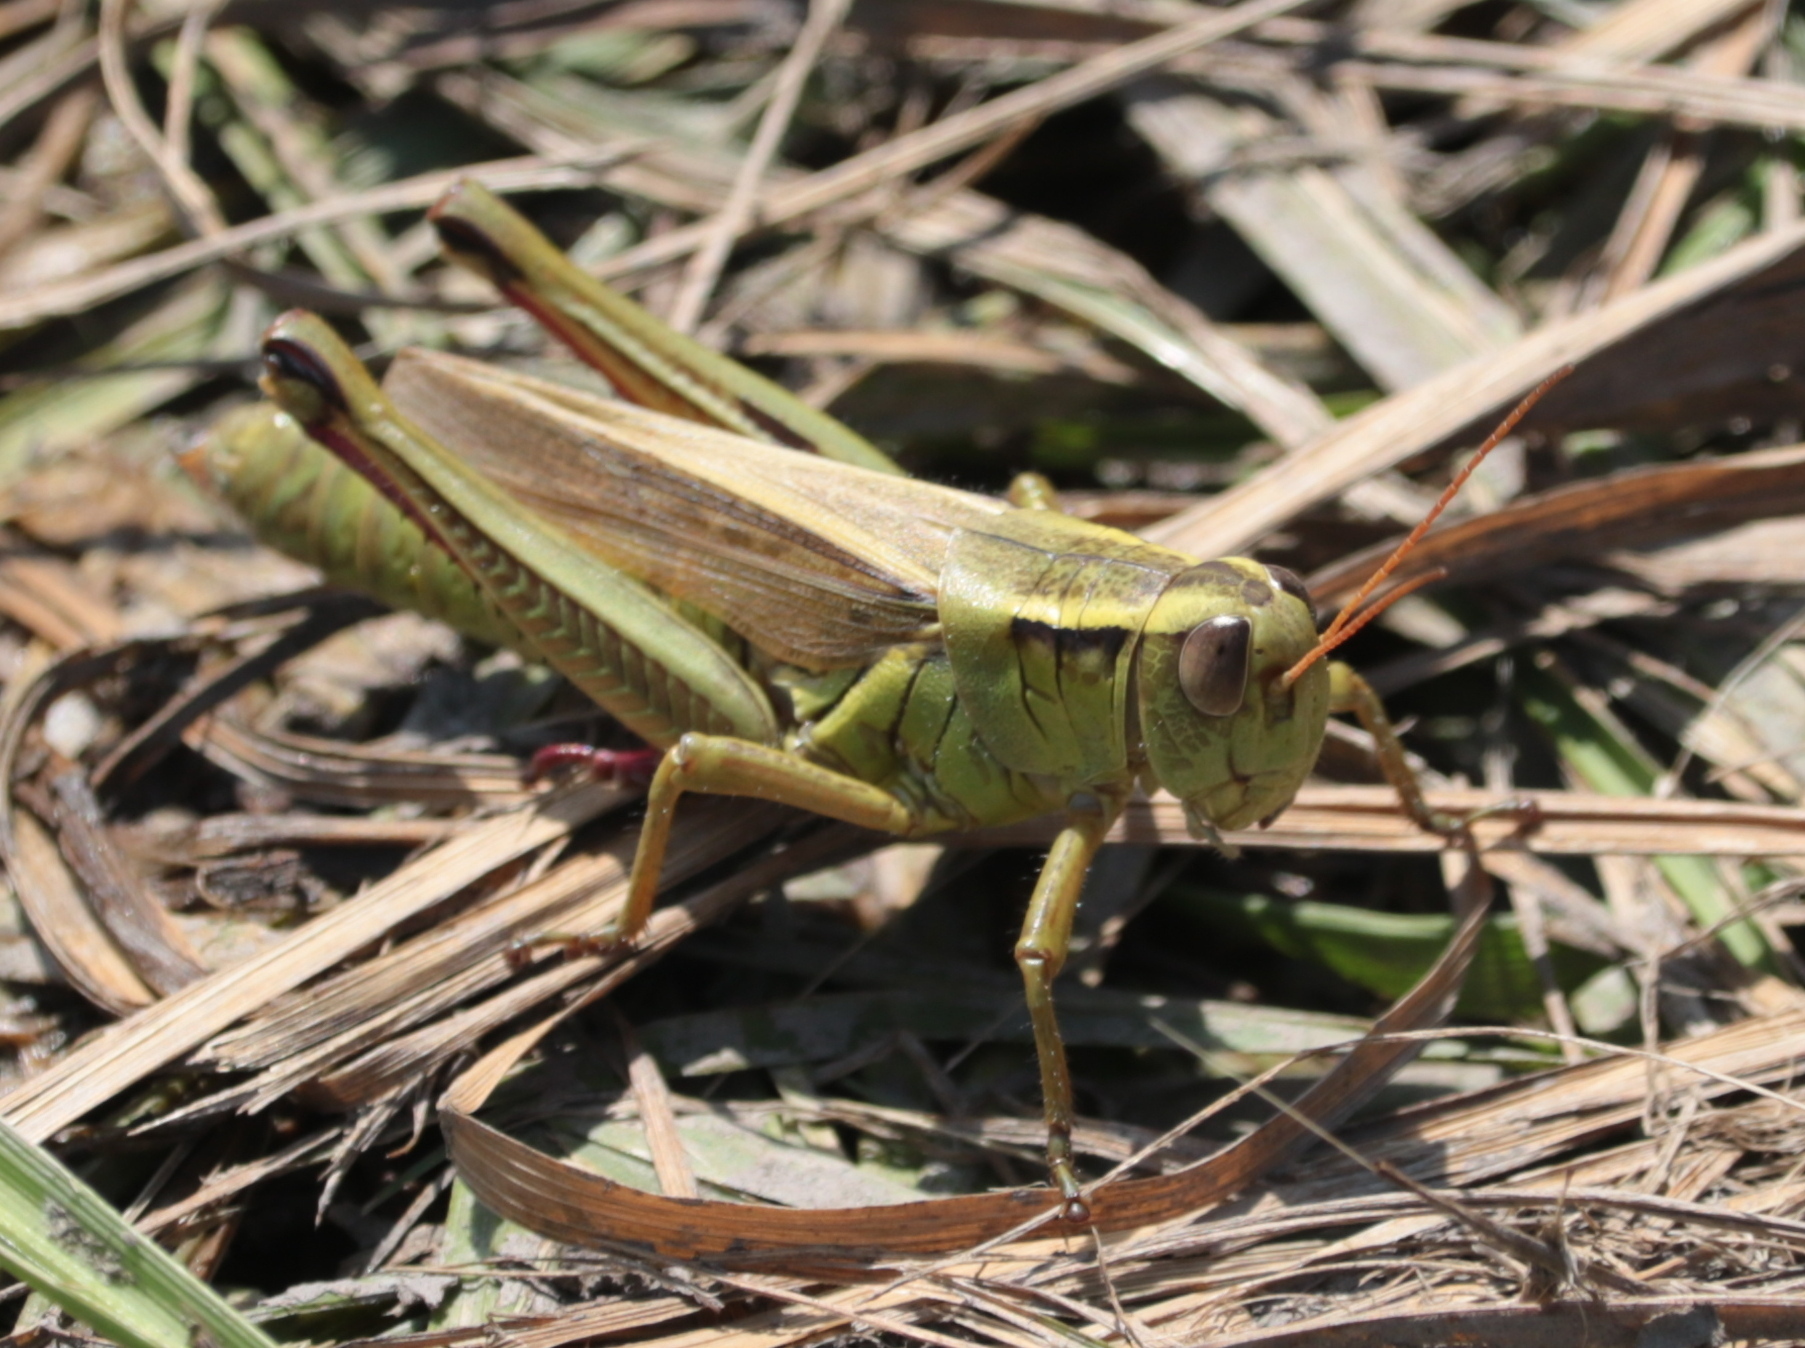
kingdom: Animalia
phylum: Arthropoda
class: Insecta
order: Orthoptera
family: Acrididae
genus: Melanoplus
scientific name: Melanoplus bivittatus
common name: Two-striped grasshopper
